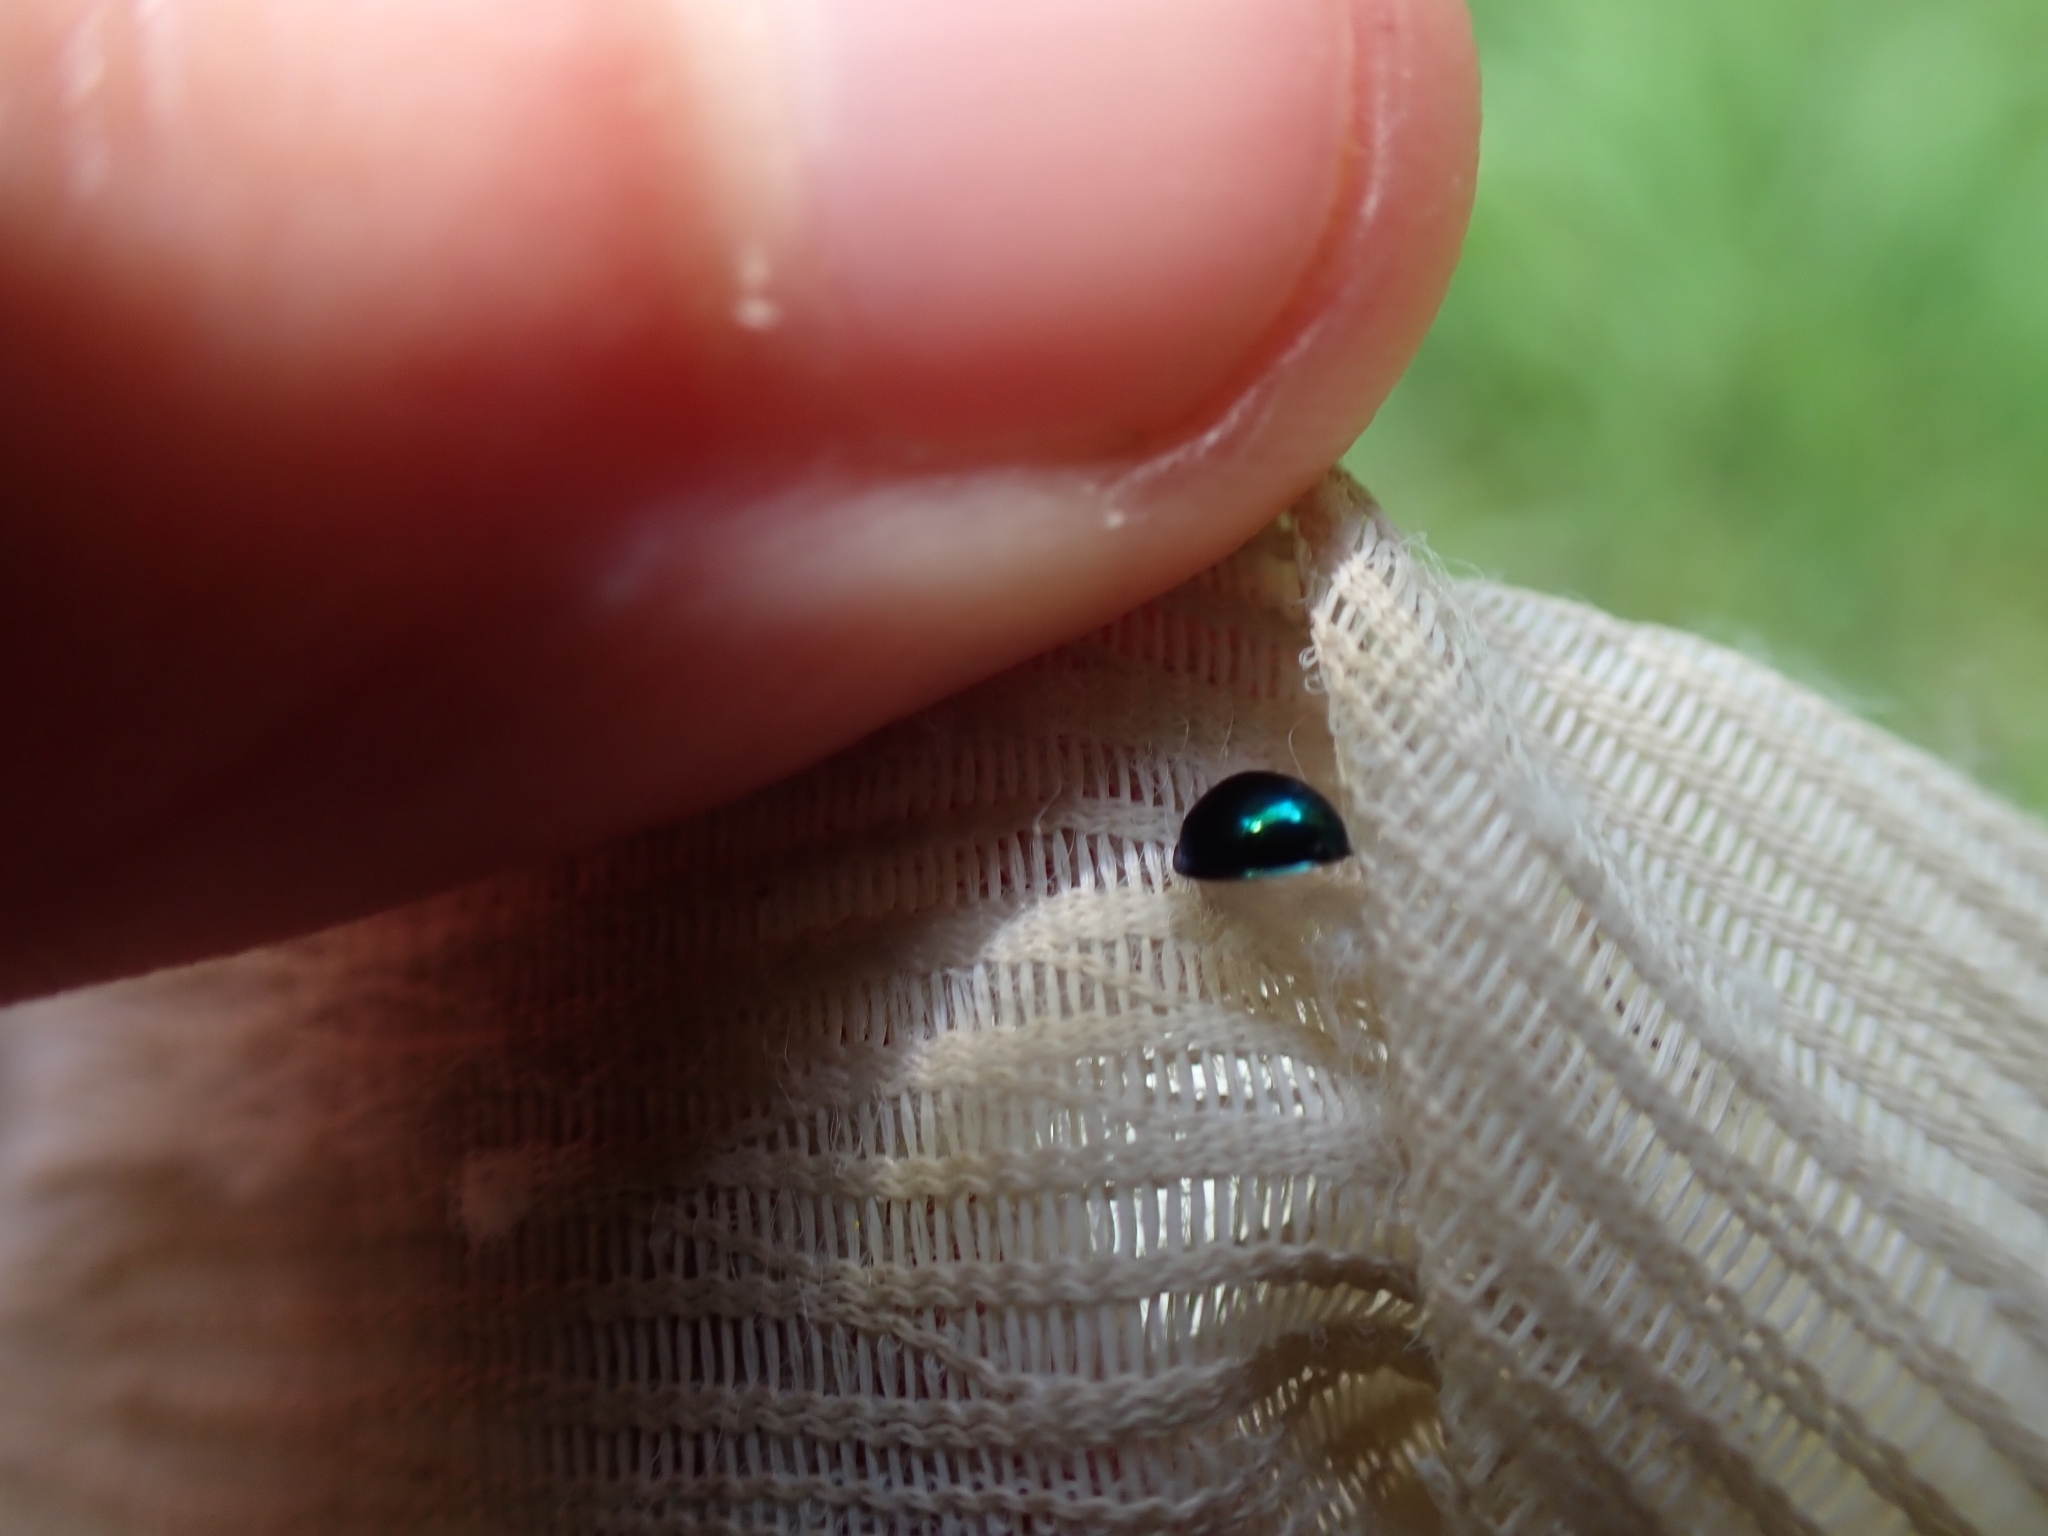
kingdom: Animalia
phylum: Arthropoda
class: Insecta
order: Coleoptera
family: Coccinellidae
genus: Halmus
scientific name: Halmus chalybeus
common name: Steel blue ladybird beetle
